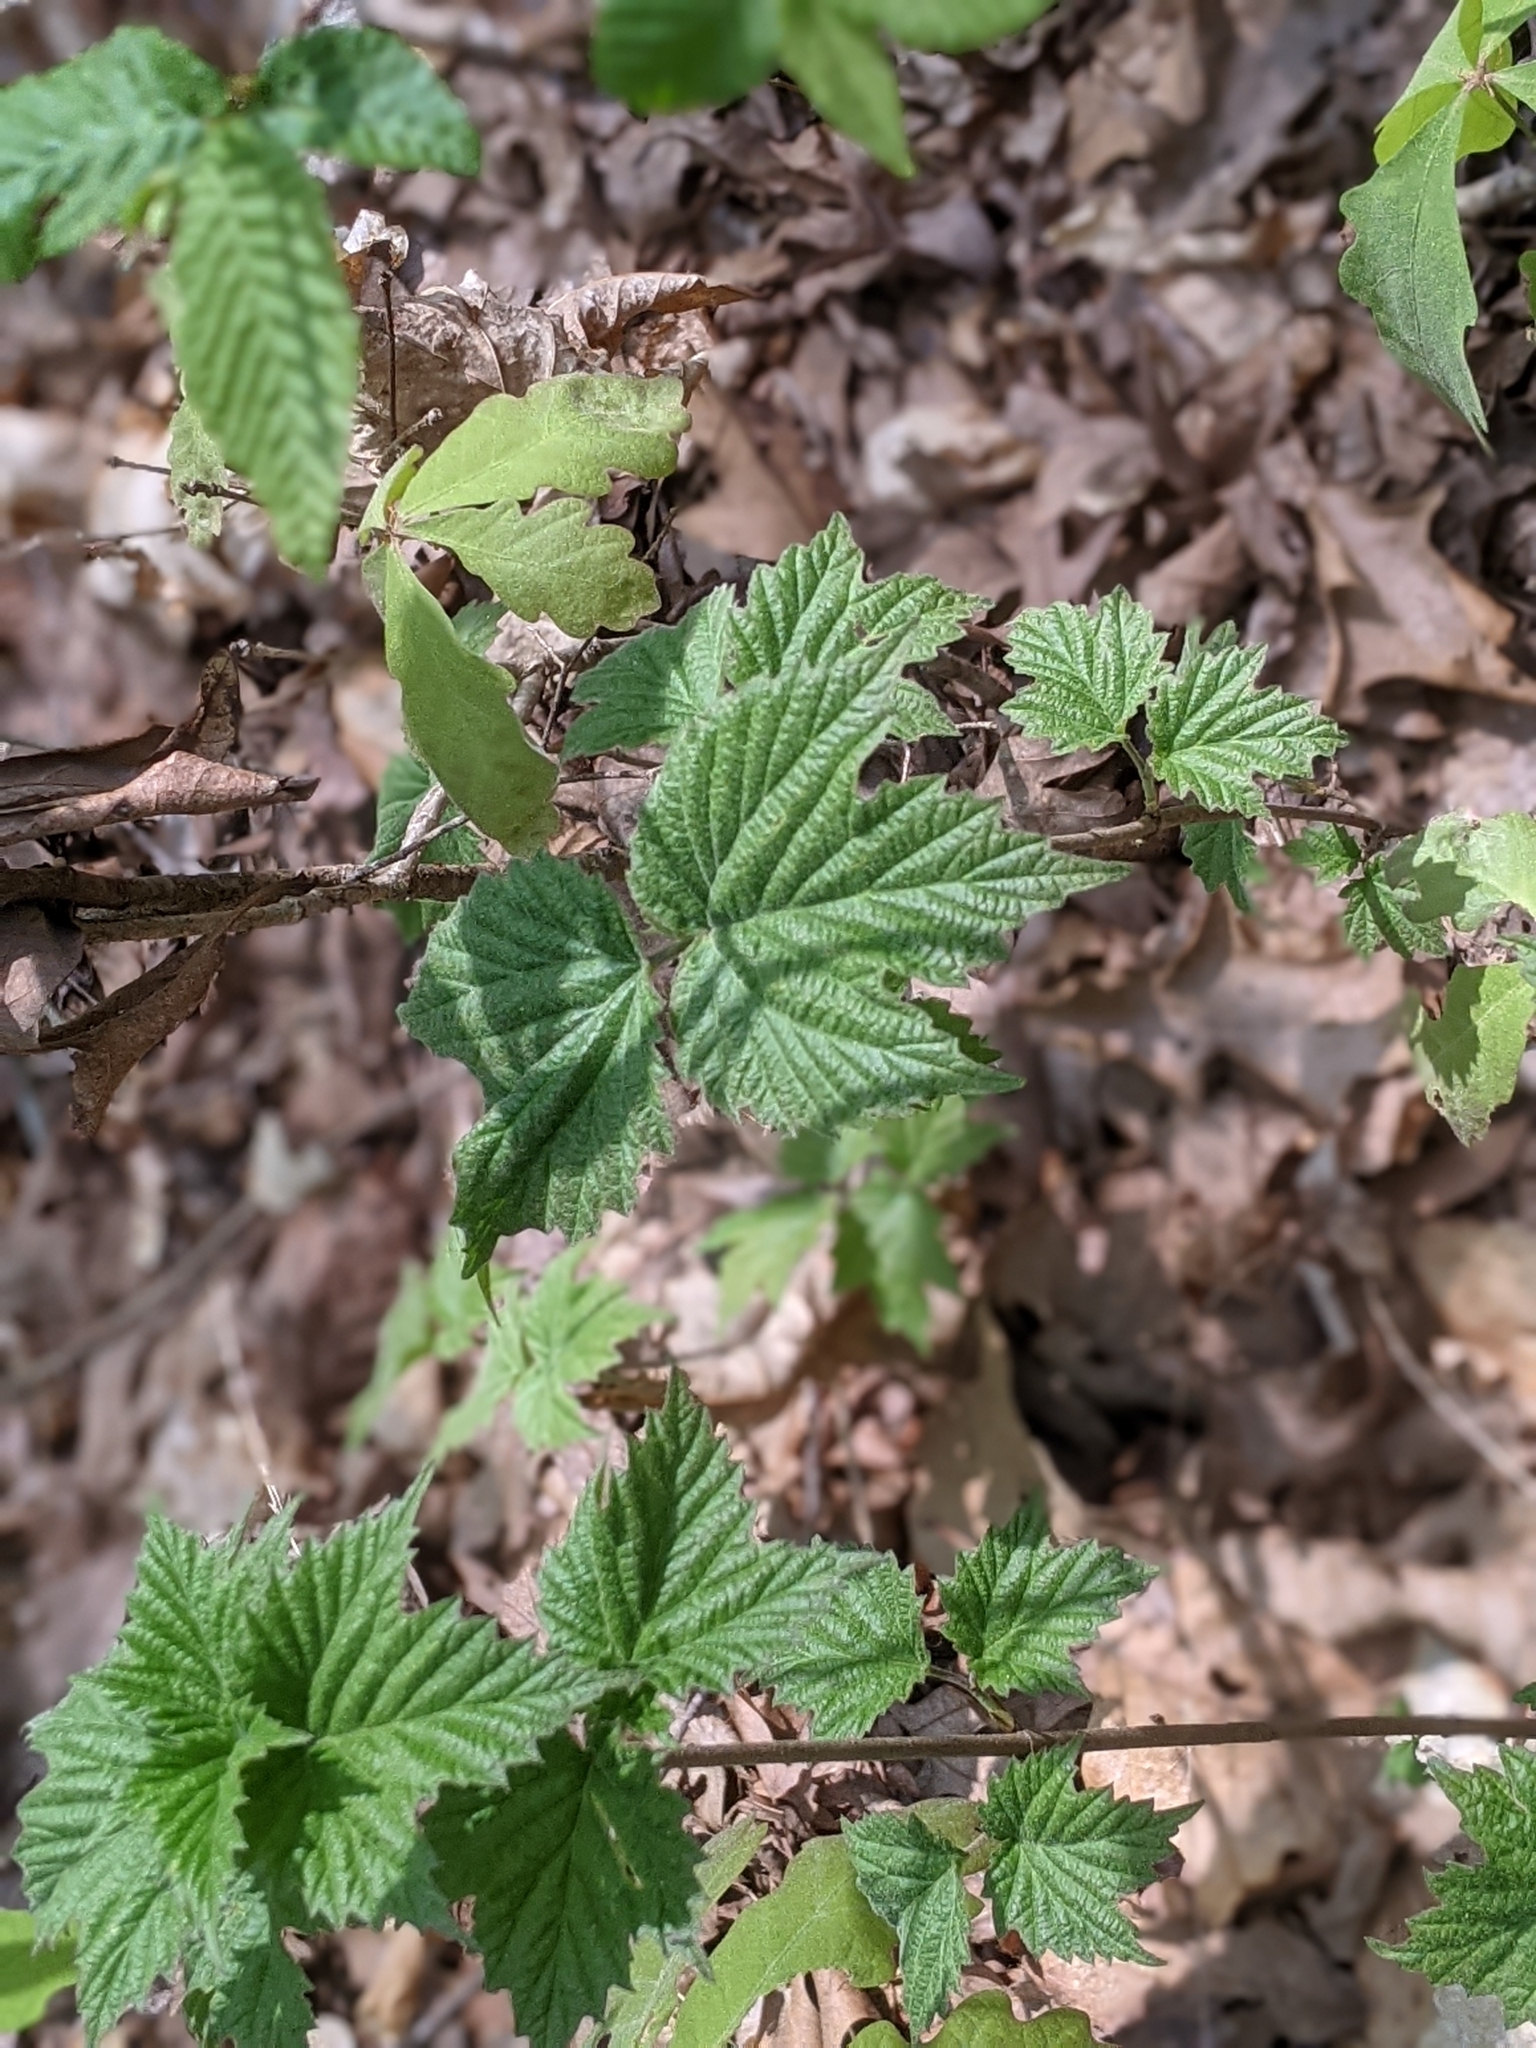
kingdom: Plantae
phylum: Tracheophyta
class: Magnoliopsida
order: Dipsacales
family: Viburnaceae
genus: Viburnum
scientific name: Viburnum acerifolium
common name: Dockmackie
